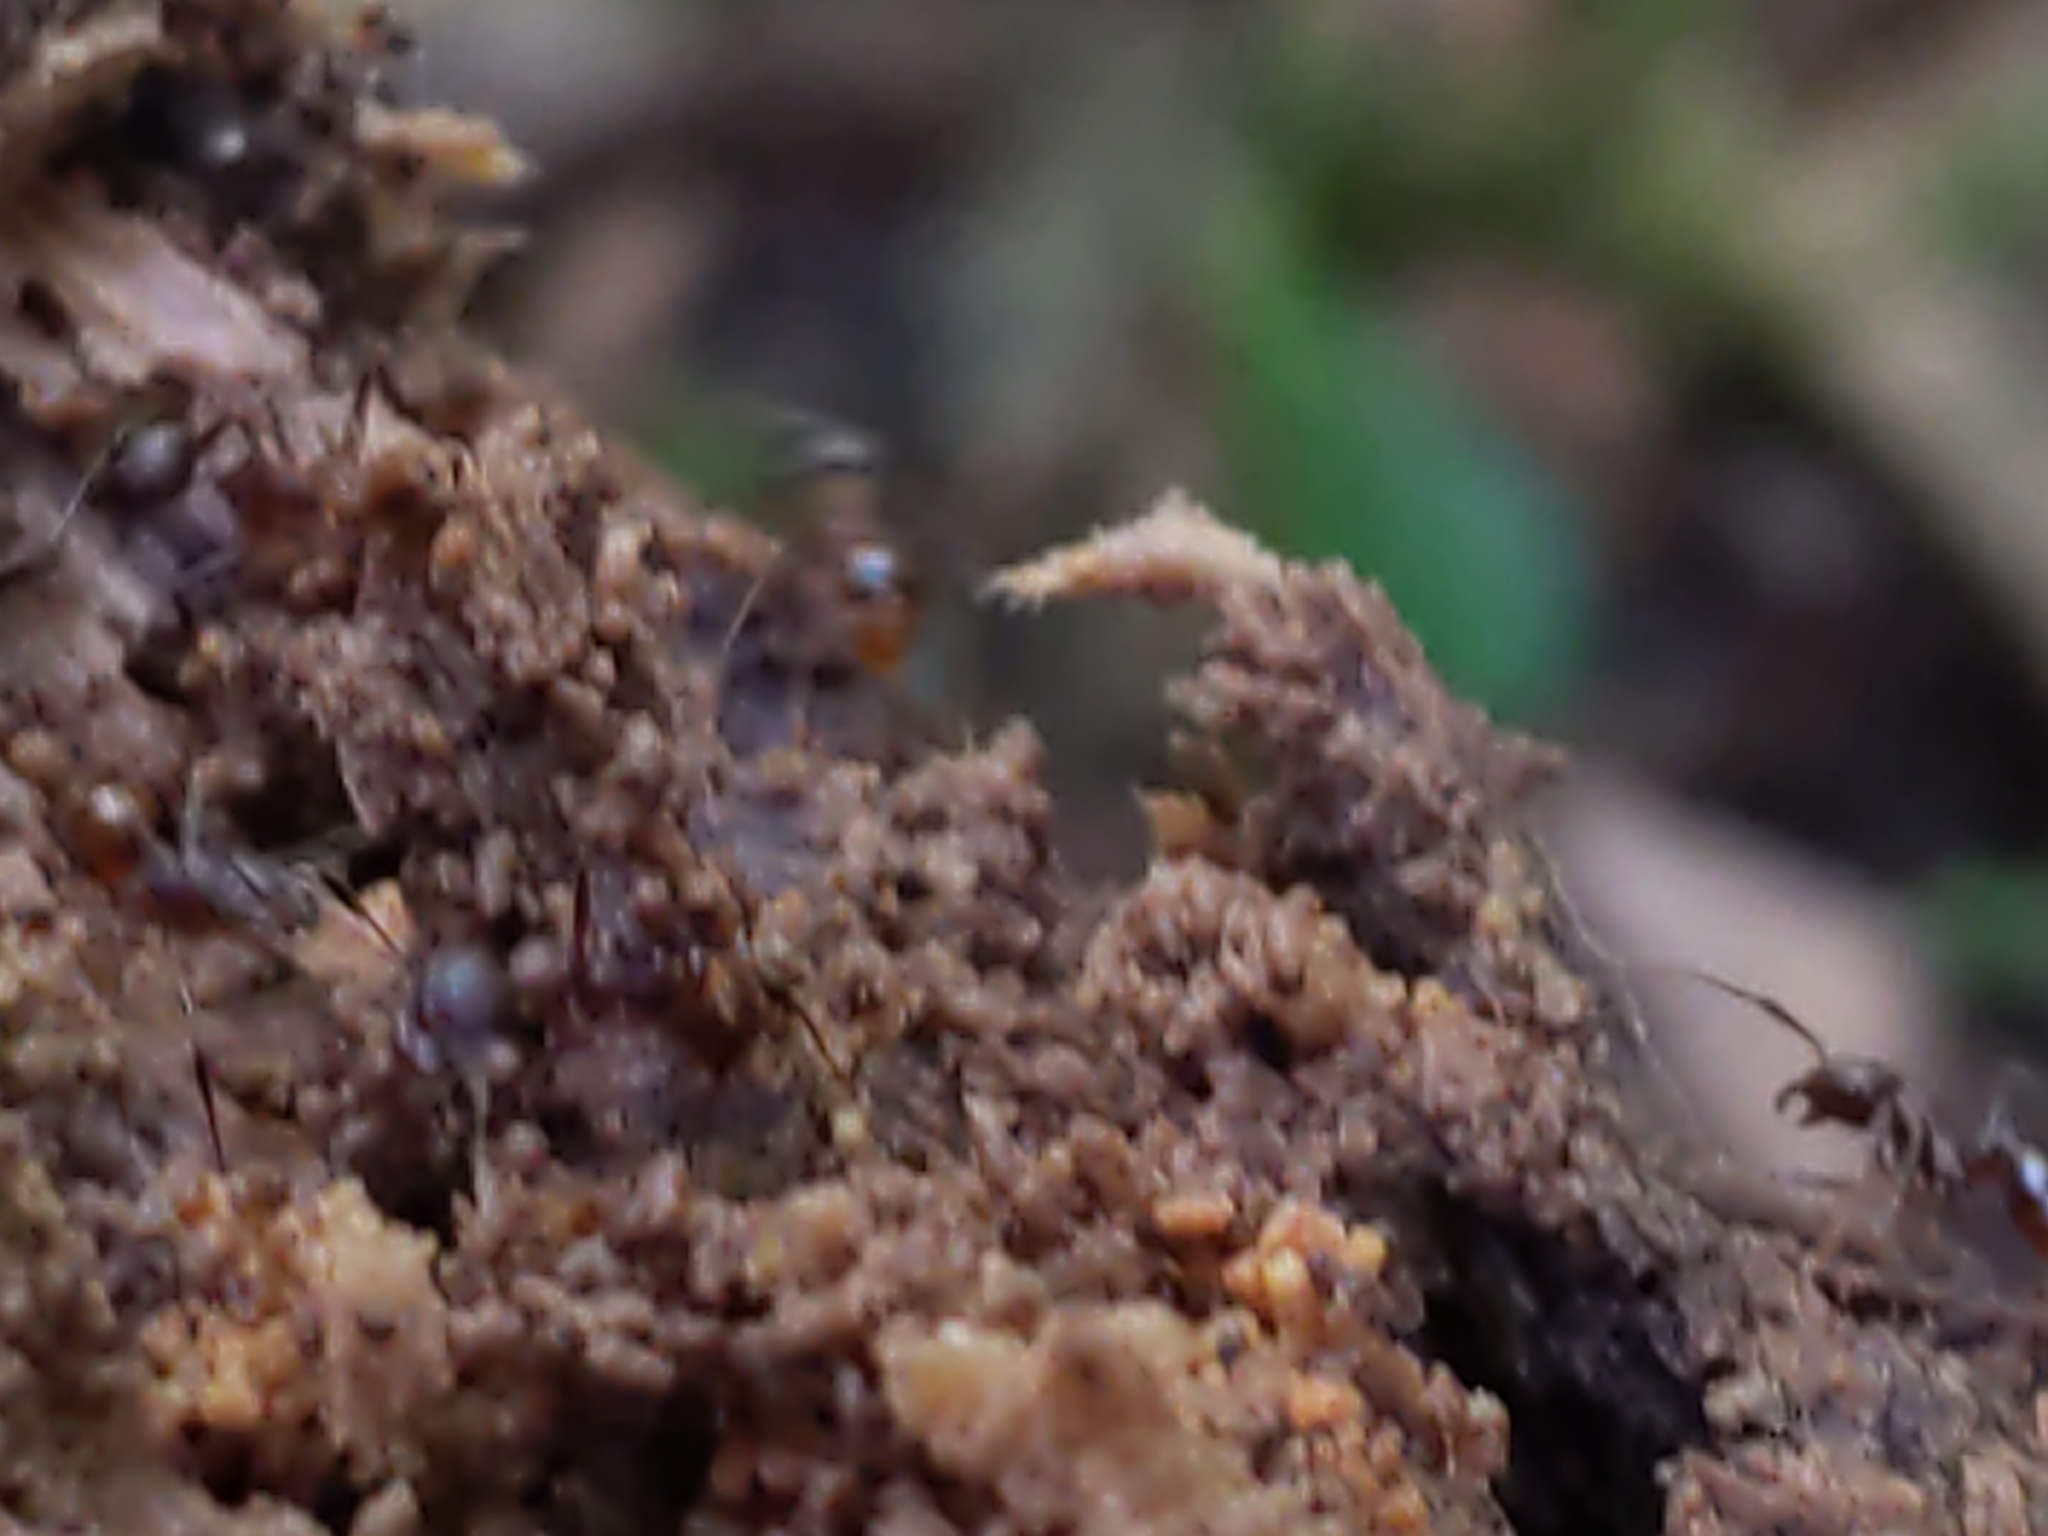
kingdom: Animalia
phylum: Arthropoda
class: Insecta
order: Hymenoptera
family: Formicidae
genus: Aphaenogaster
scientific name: Aphaenogaster
